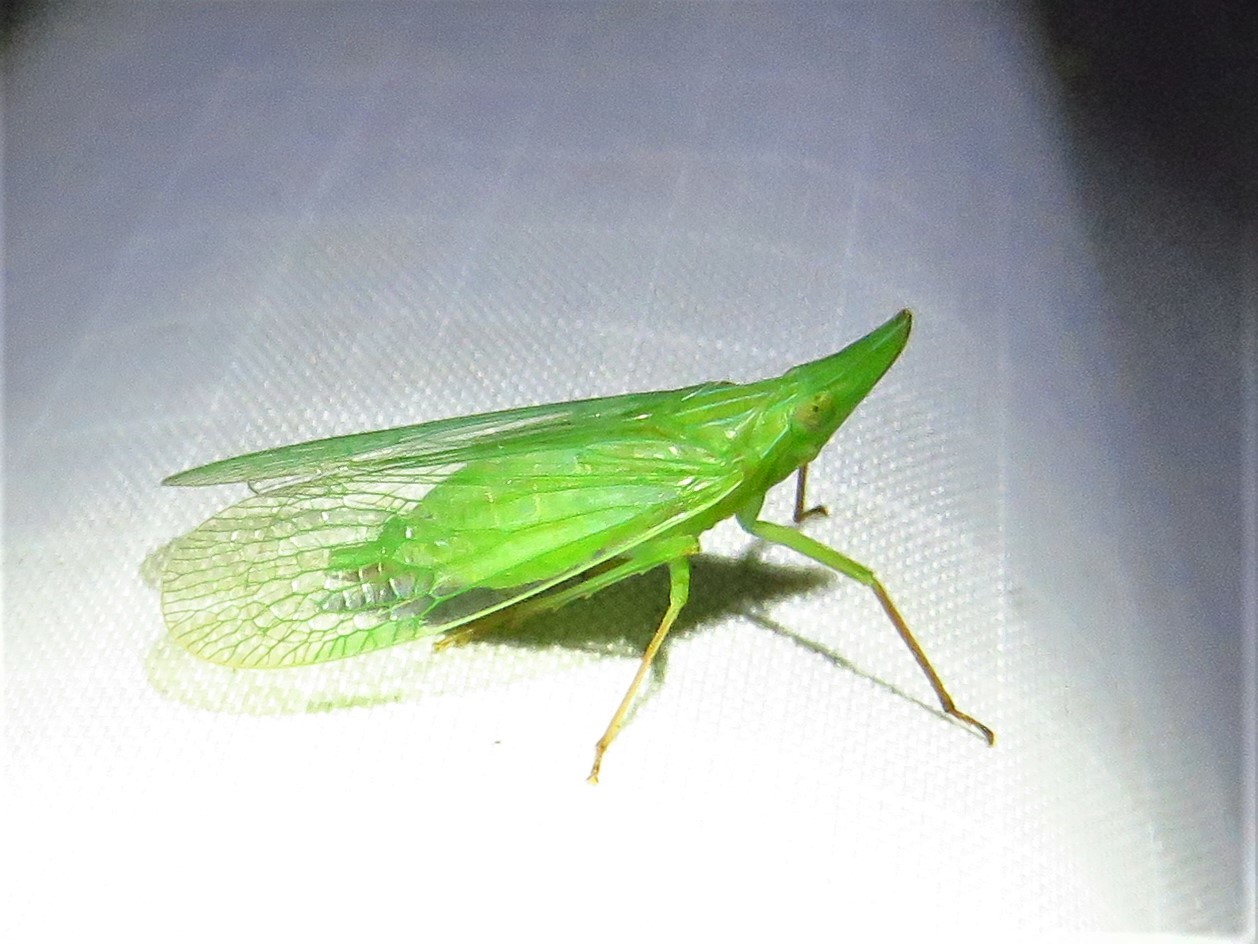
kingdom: Animalia
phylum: Arthropoda
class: Insecta
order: Hemiptera
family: Dictyopharidae
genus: Rhynchomitra
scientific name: Rhynchomitra microrhina
